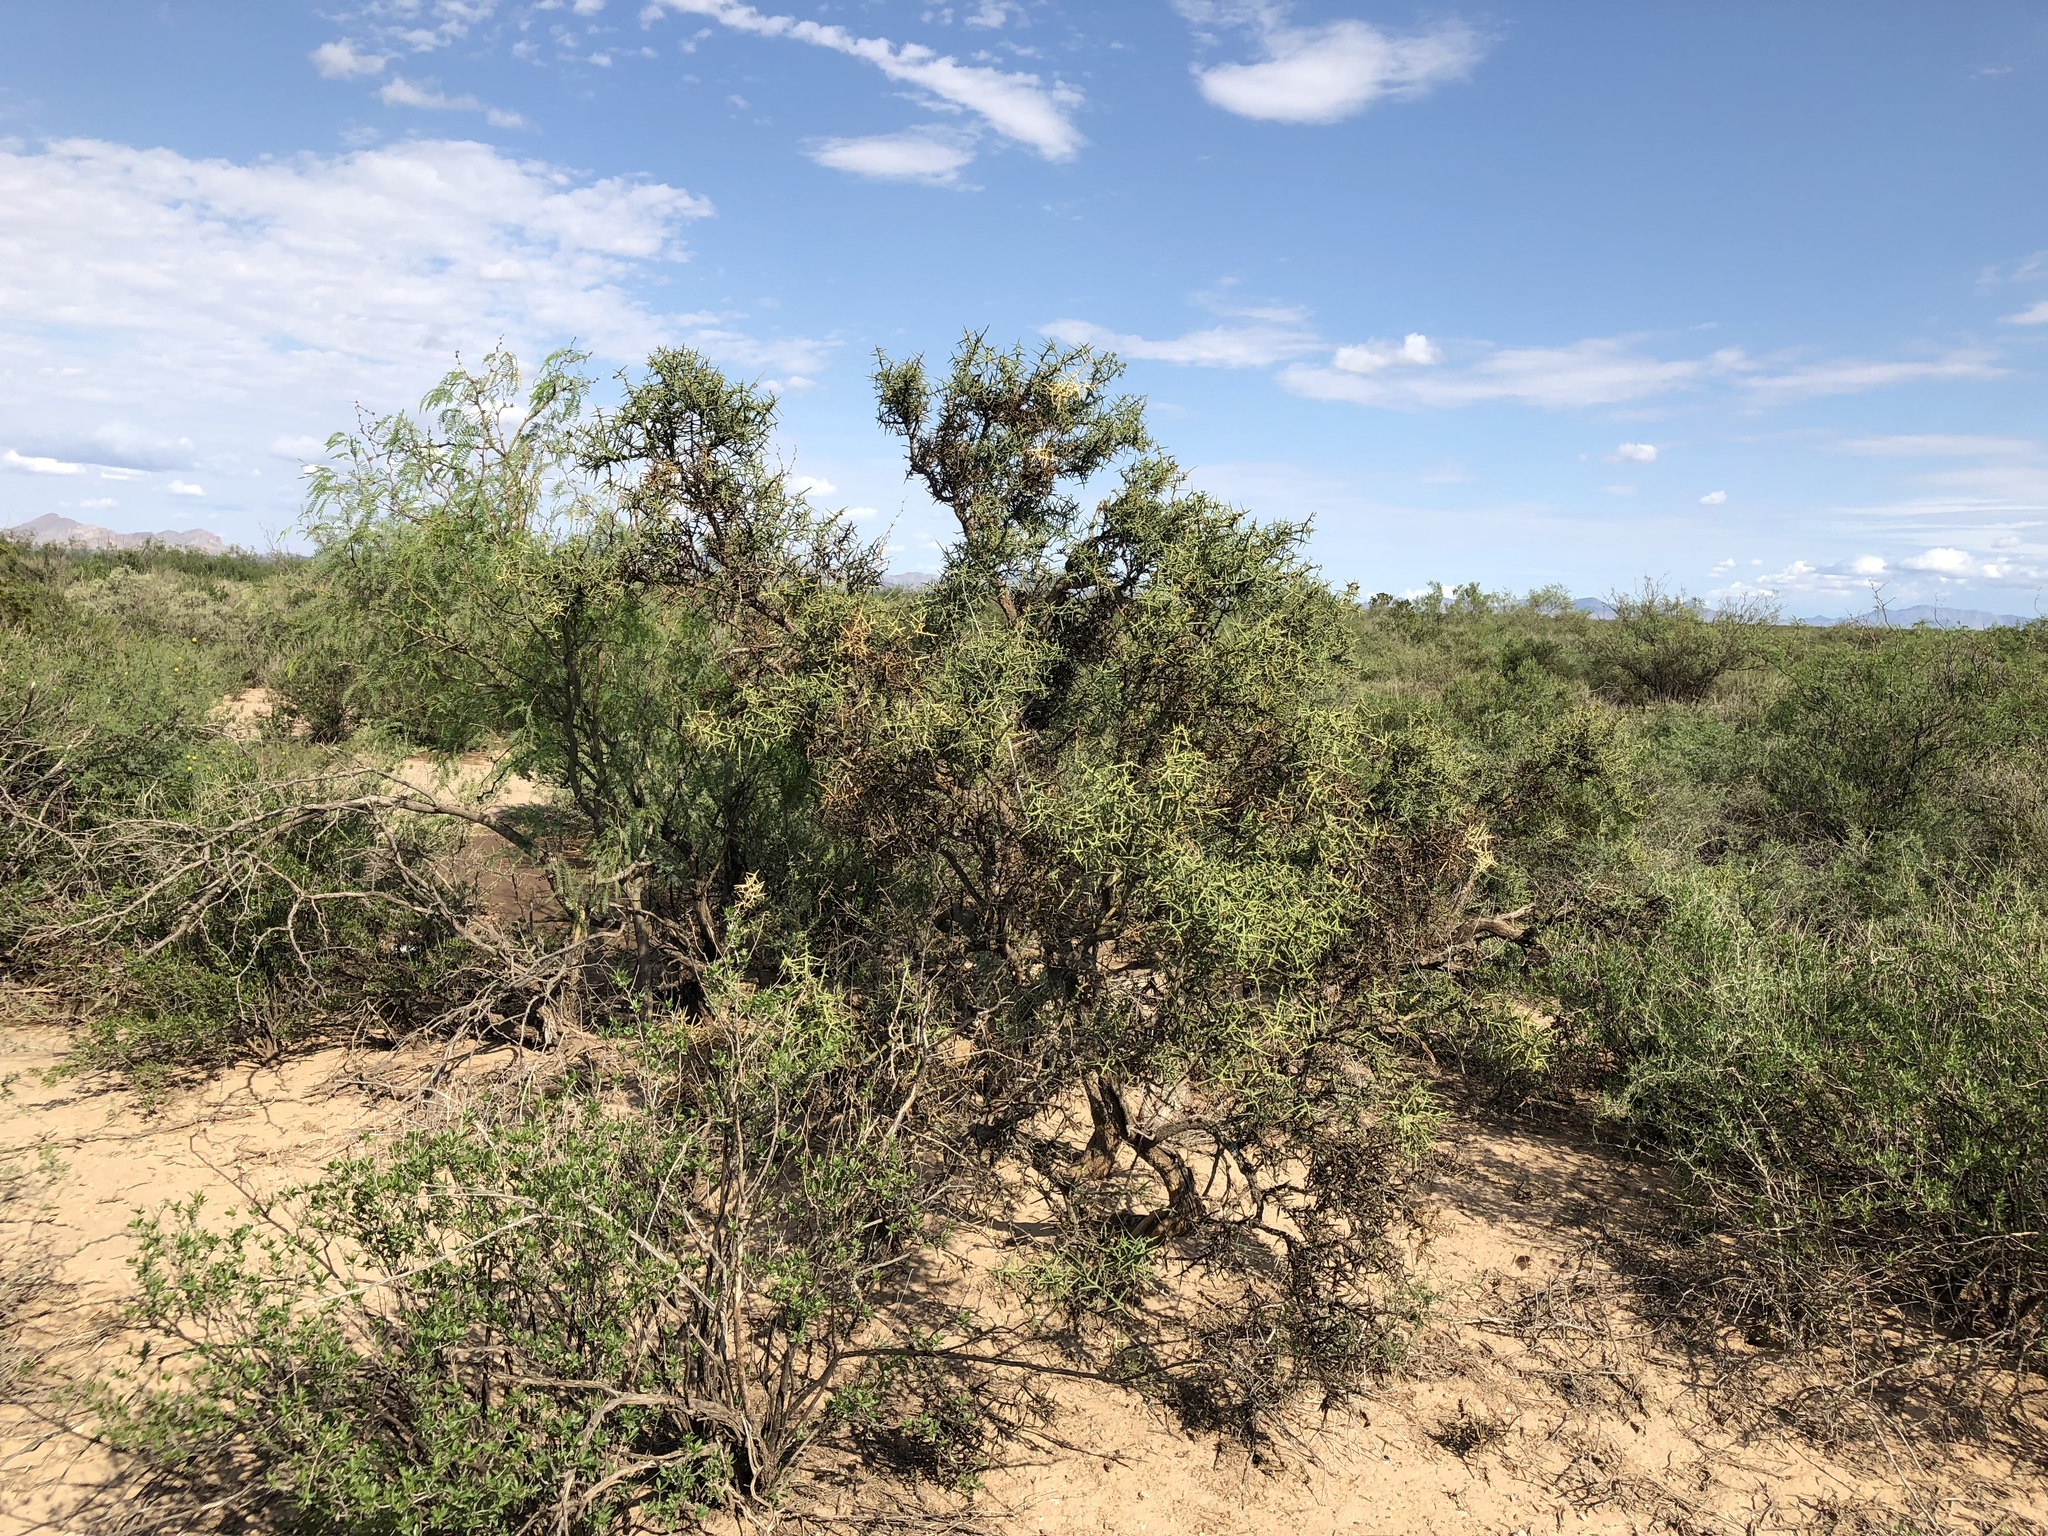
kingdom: Plantae
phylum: Tracheophyta
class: Magnoliopsida
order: Brassicales
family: Koeberliniaceae
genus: Koeberlinia
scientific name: Koeberlinia spinosa
